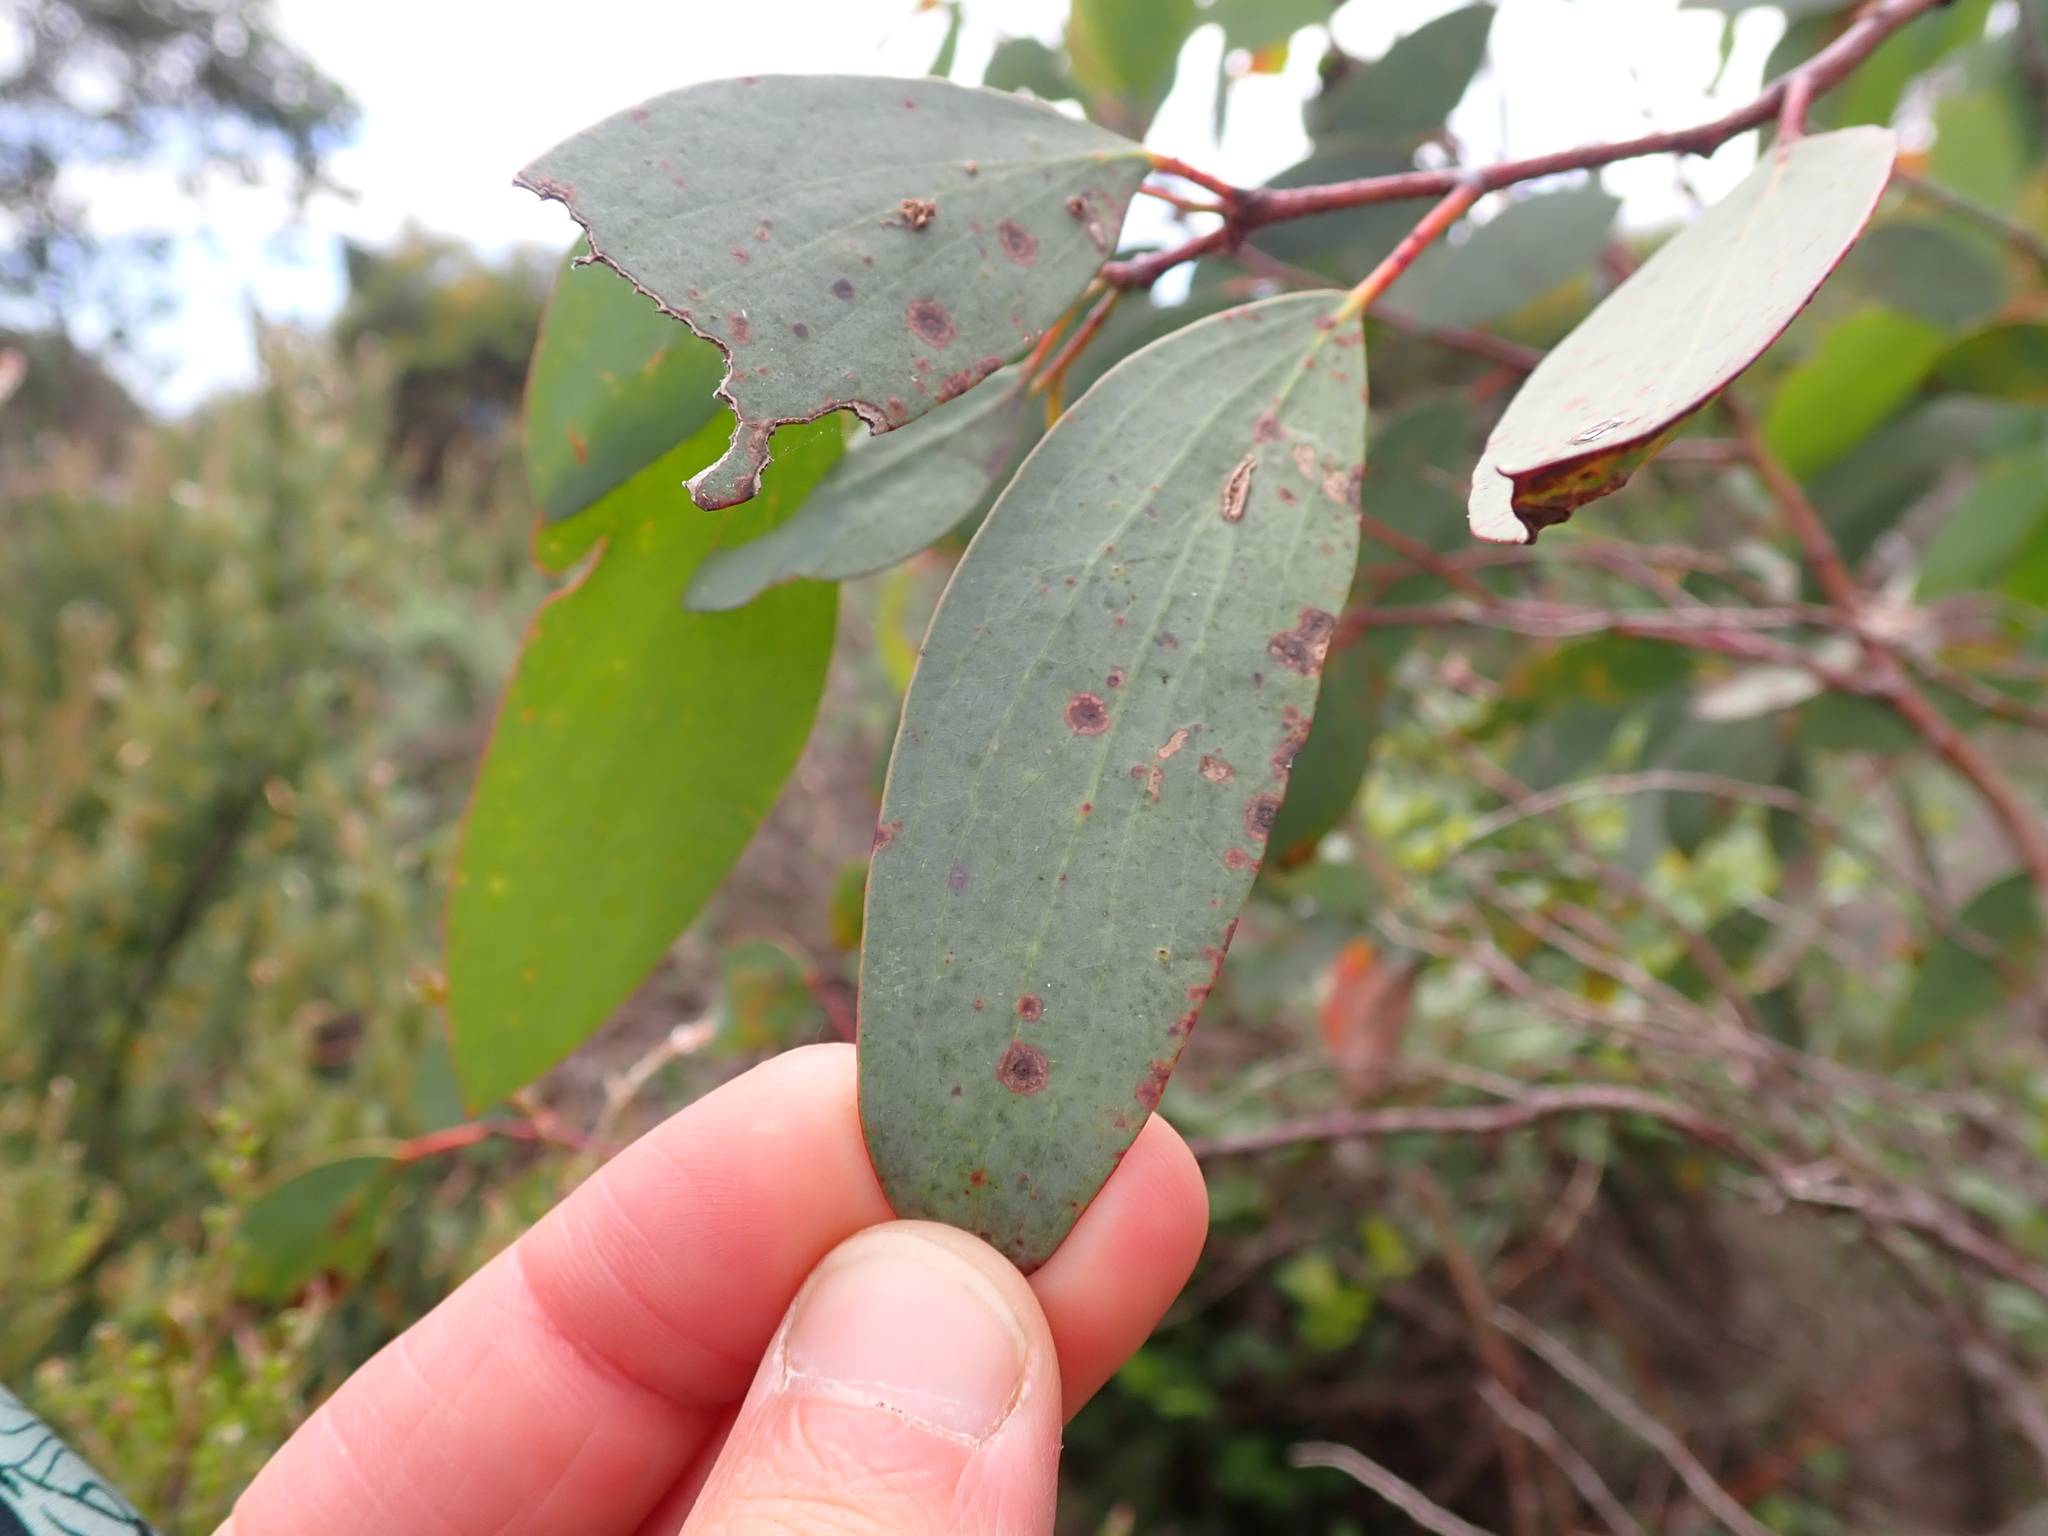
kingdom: Plantae
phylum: Tracheophyta
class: Magnoliopsida
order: Myrtales
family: Myrtaceae
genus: Eucalyptus
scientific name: Eucalyptus pauciflora
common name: Snow gum
